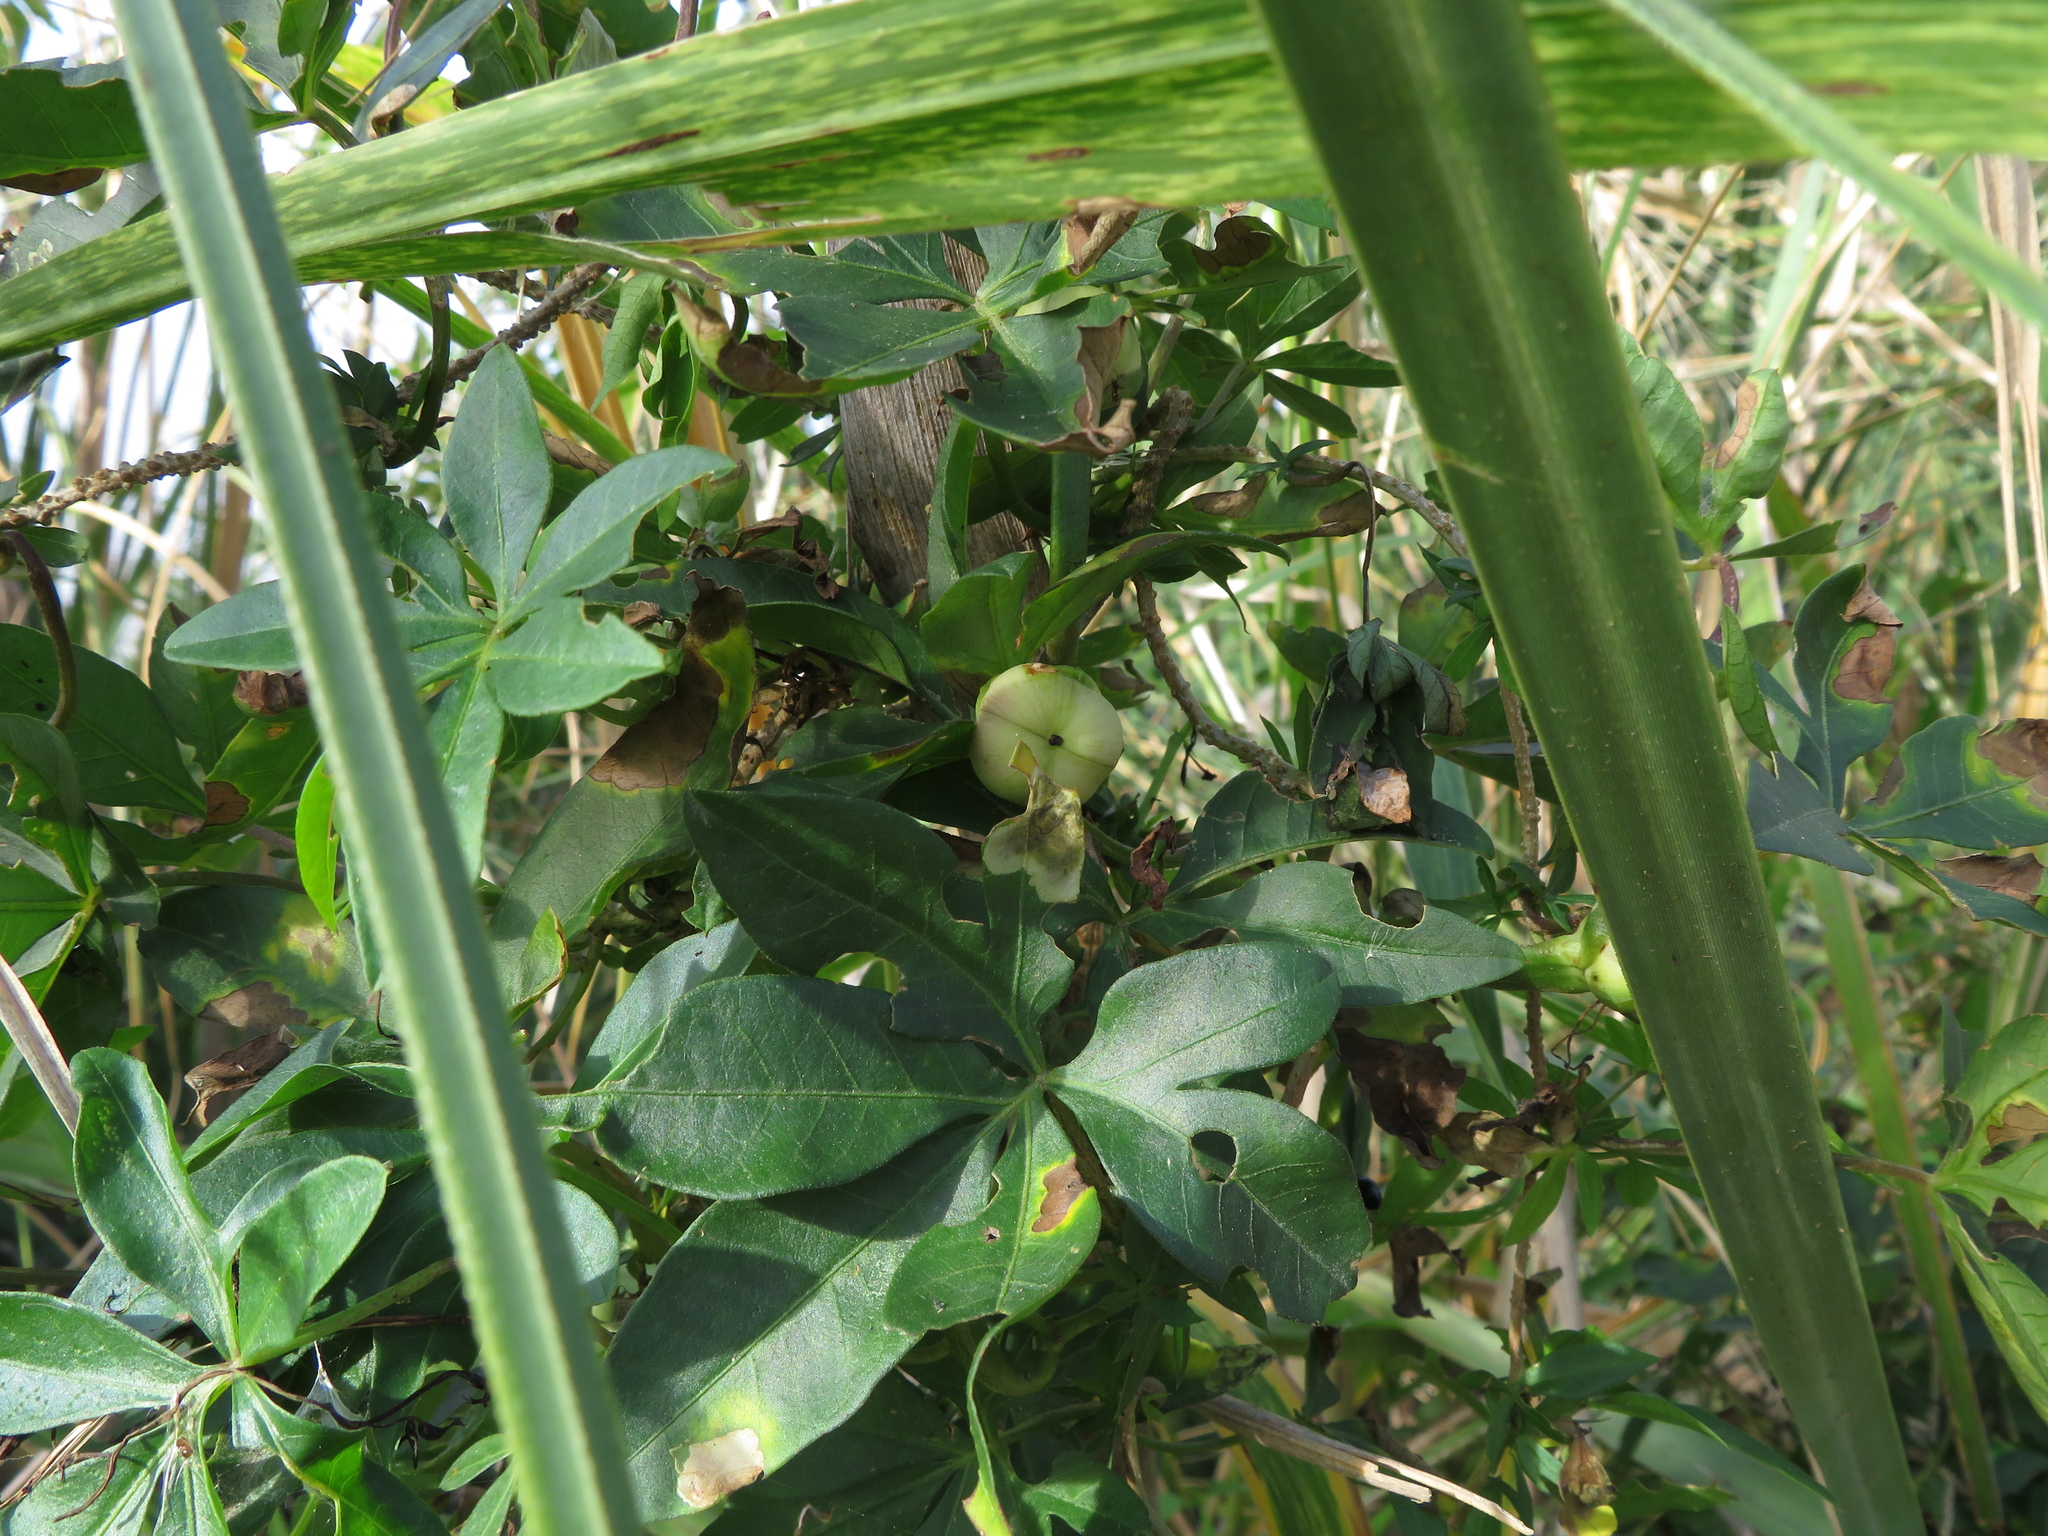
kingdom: Plantae
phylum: Tracheophyta
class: Magnoliopsida
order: Solanales
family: Convolvulaceae
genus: Ipomoea
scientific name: Ipomoea cairica
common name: Mile a minute vine
